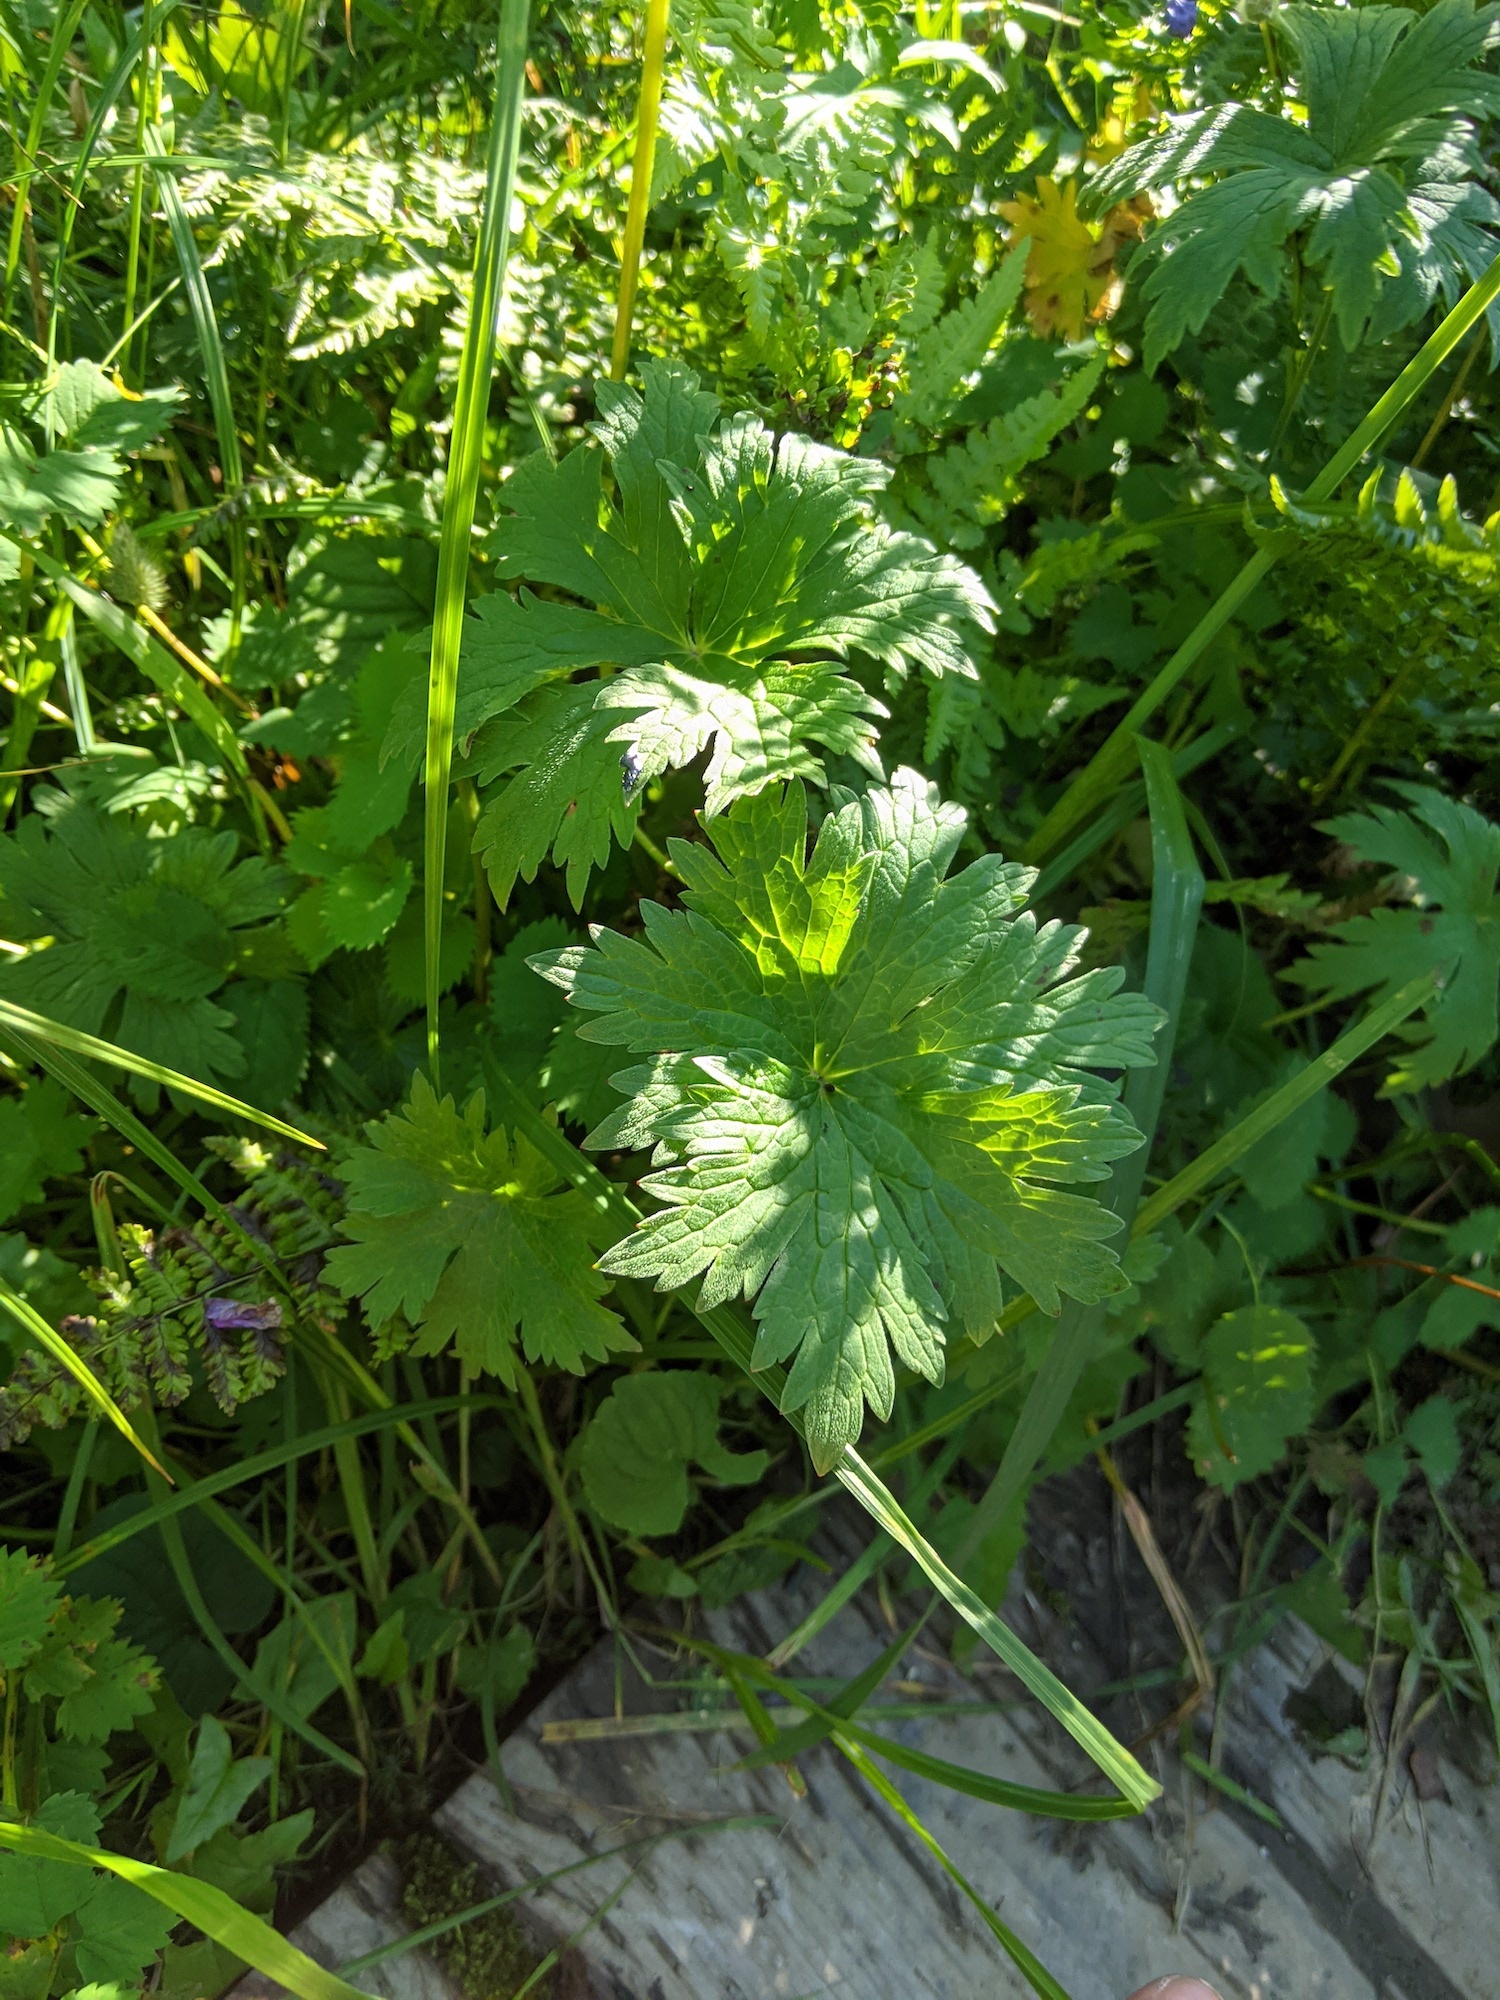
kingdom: Plantae
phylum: Tracheophyta
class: Magnoliopsida
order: Geraniales
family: Geraniaceae
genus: Geranium
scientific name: Geranium erianthum
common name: Northern crane's-bill
